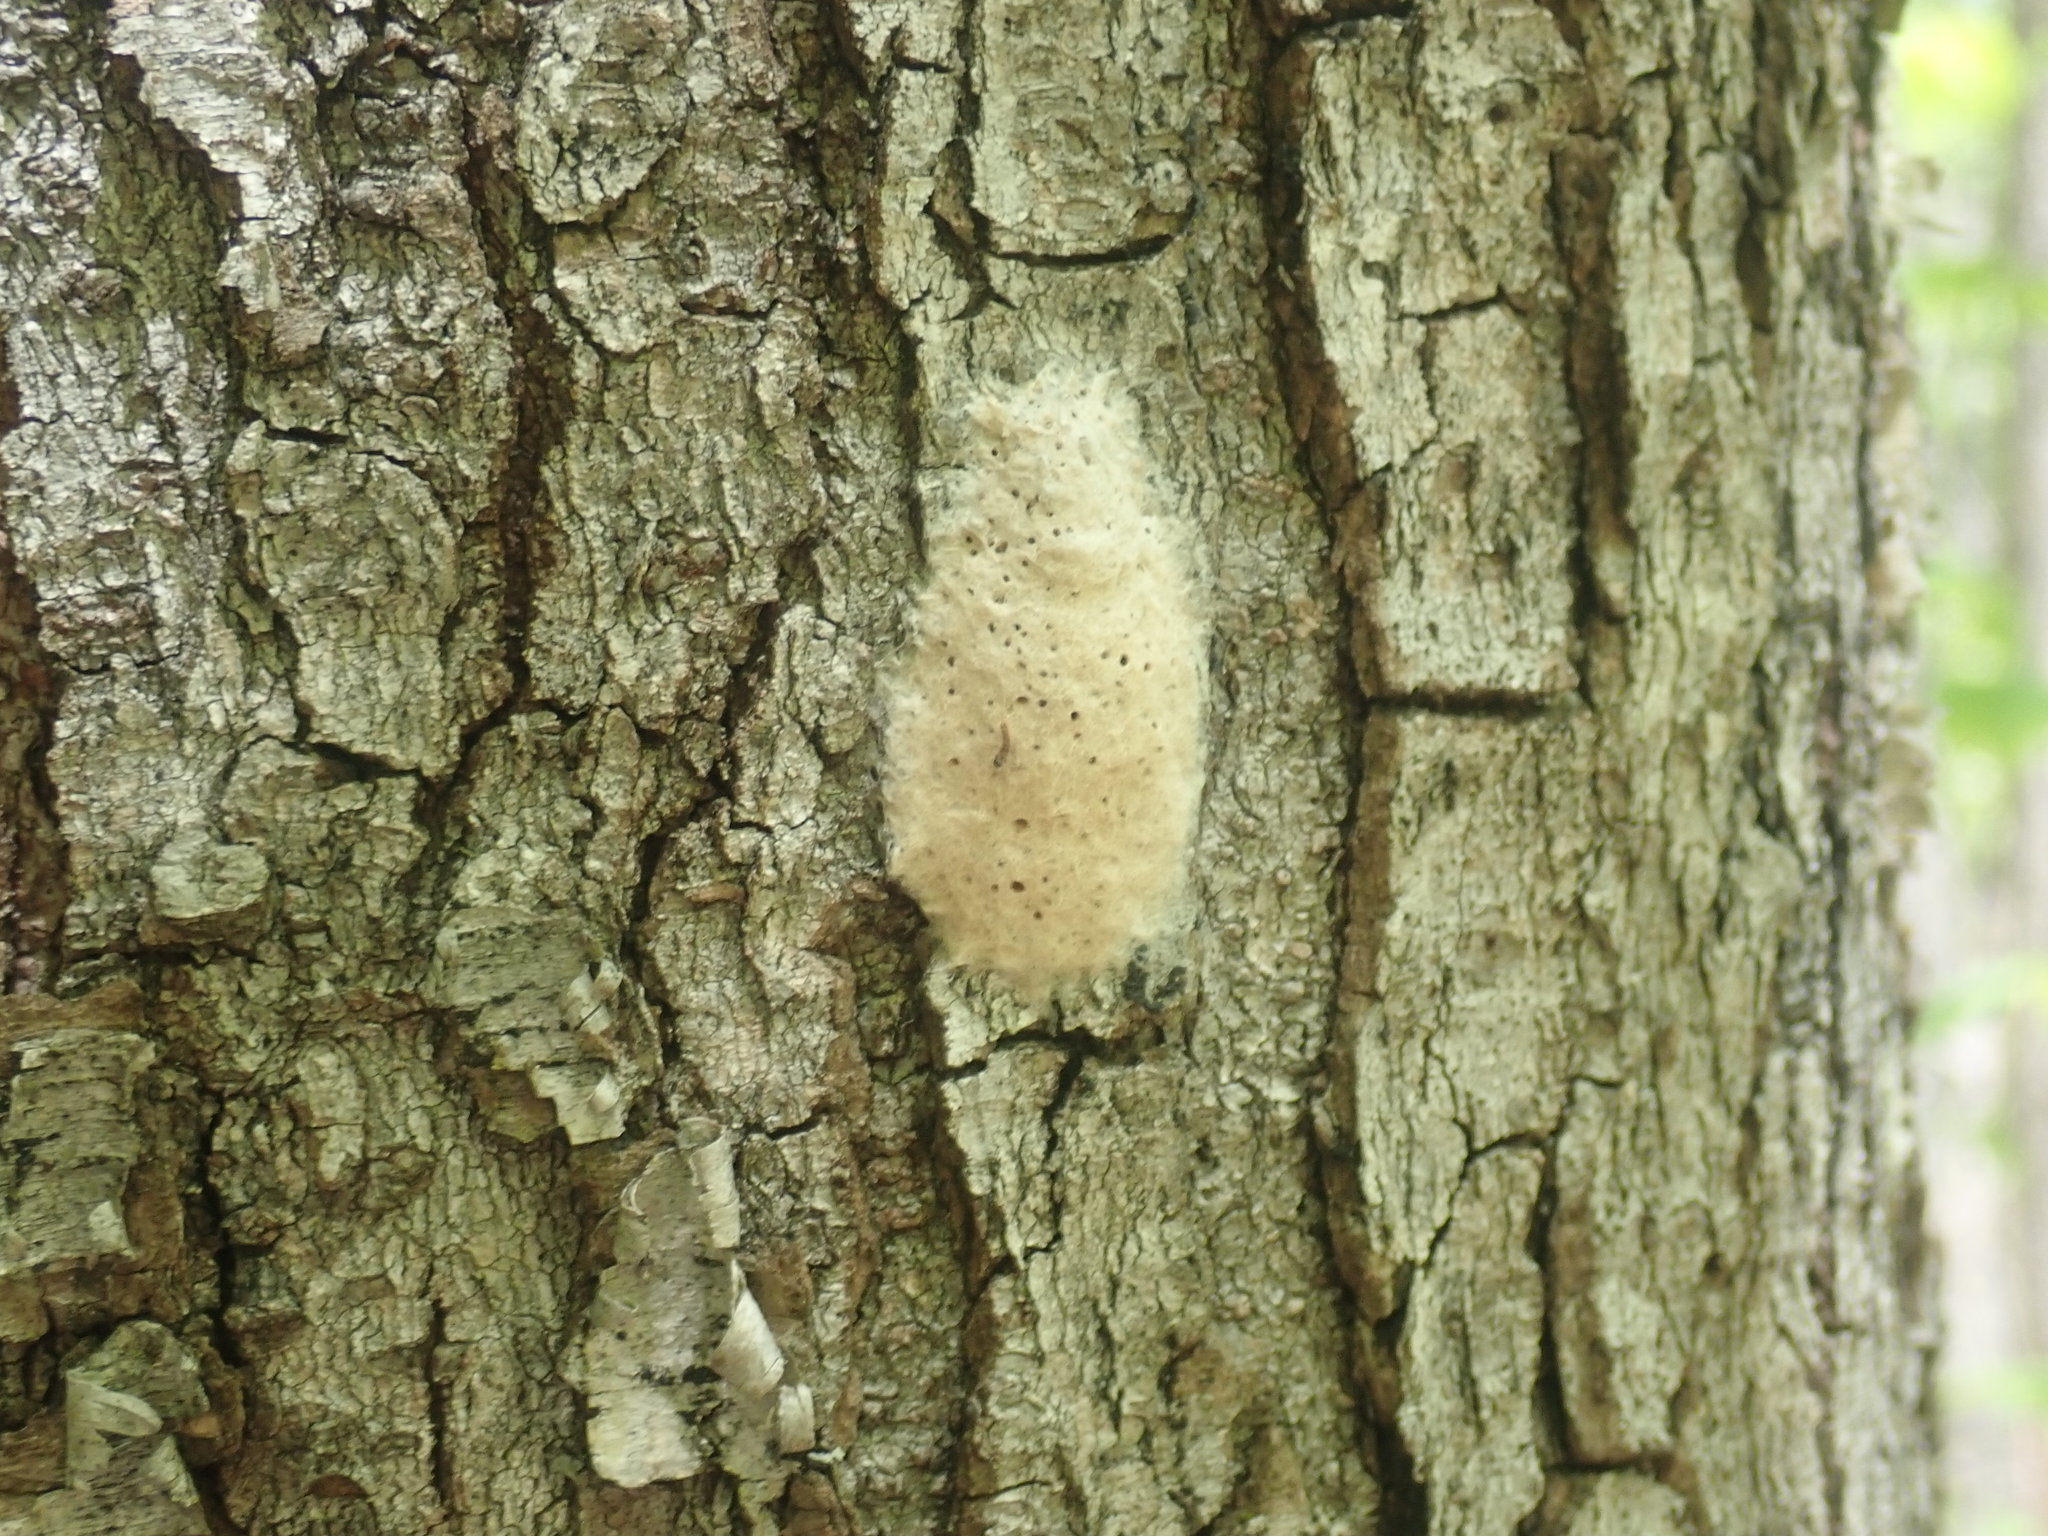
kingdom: Animalia
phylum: Arthropoda
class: Insecta
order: Lepidoptera
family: Erebidae
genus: Lymantria
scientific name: Lymantria dispar
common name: Gypsy moth
